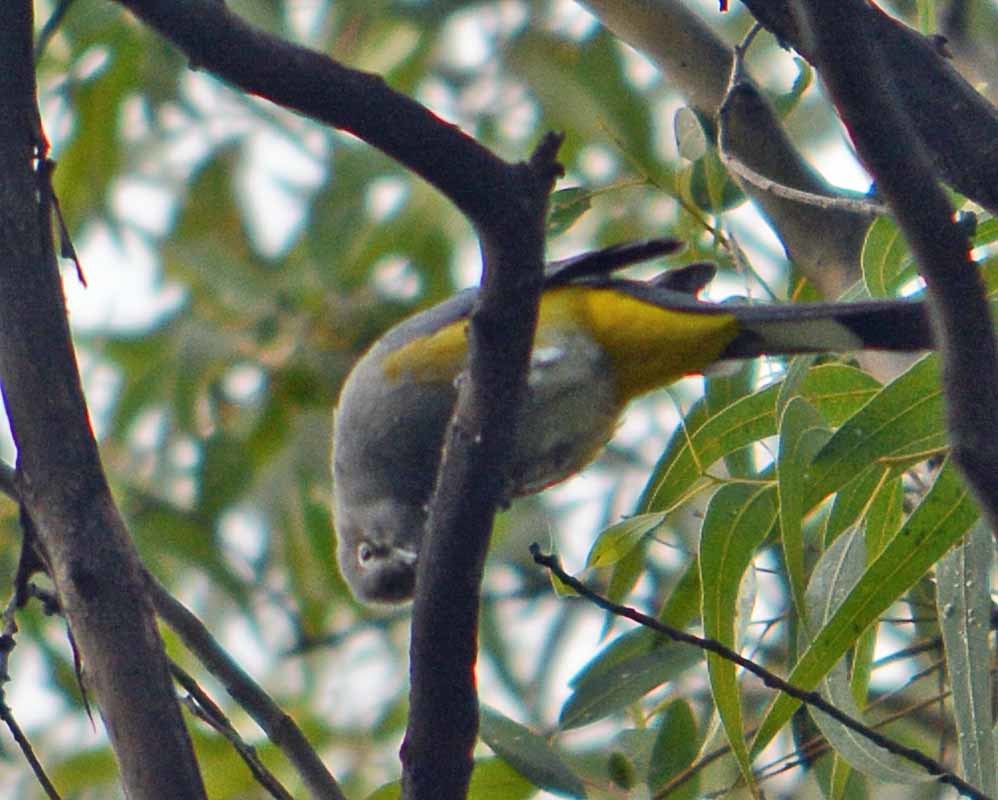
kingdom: Animalia
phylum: Chordata
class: Aves
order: Passeriformes
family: Ptilogonatidae
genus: Ptilogonys
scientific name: Ptilogonys cinereus
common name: Gray silky-flycatcher
